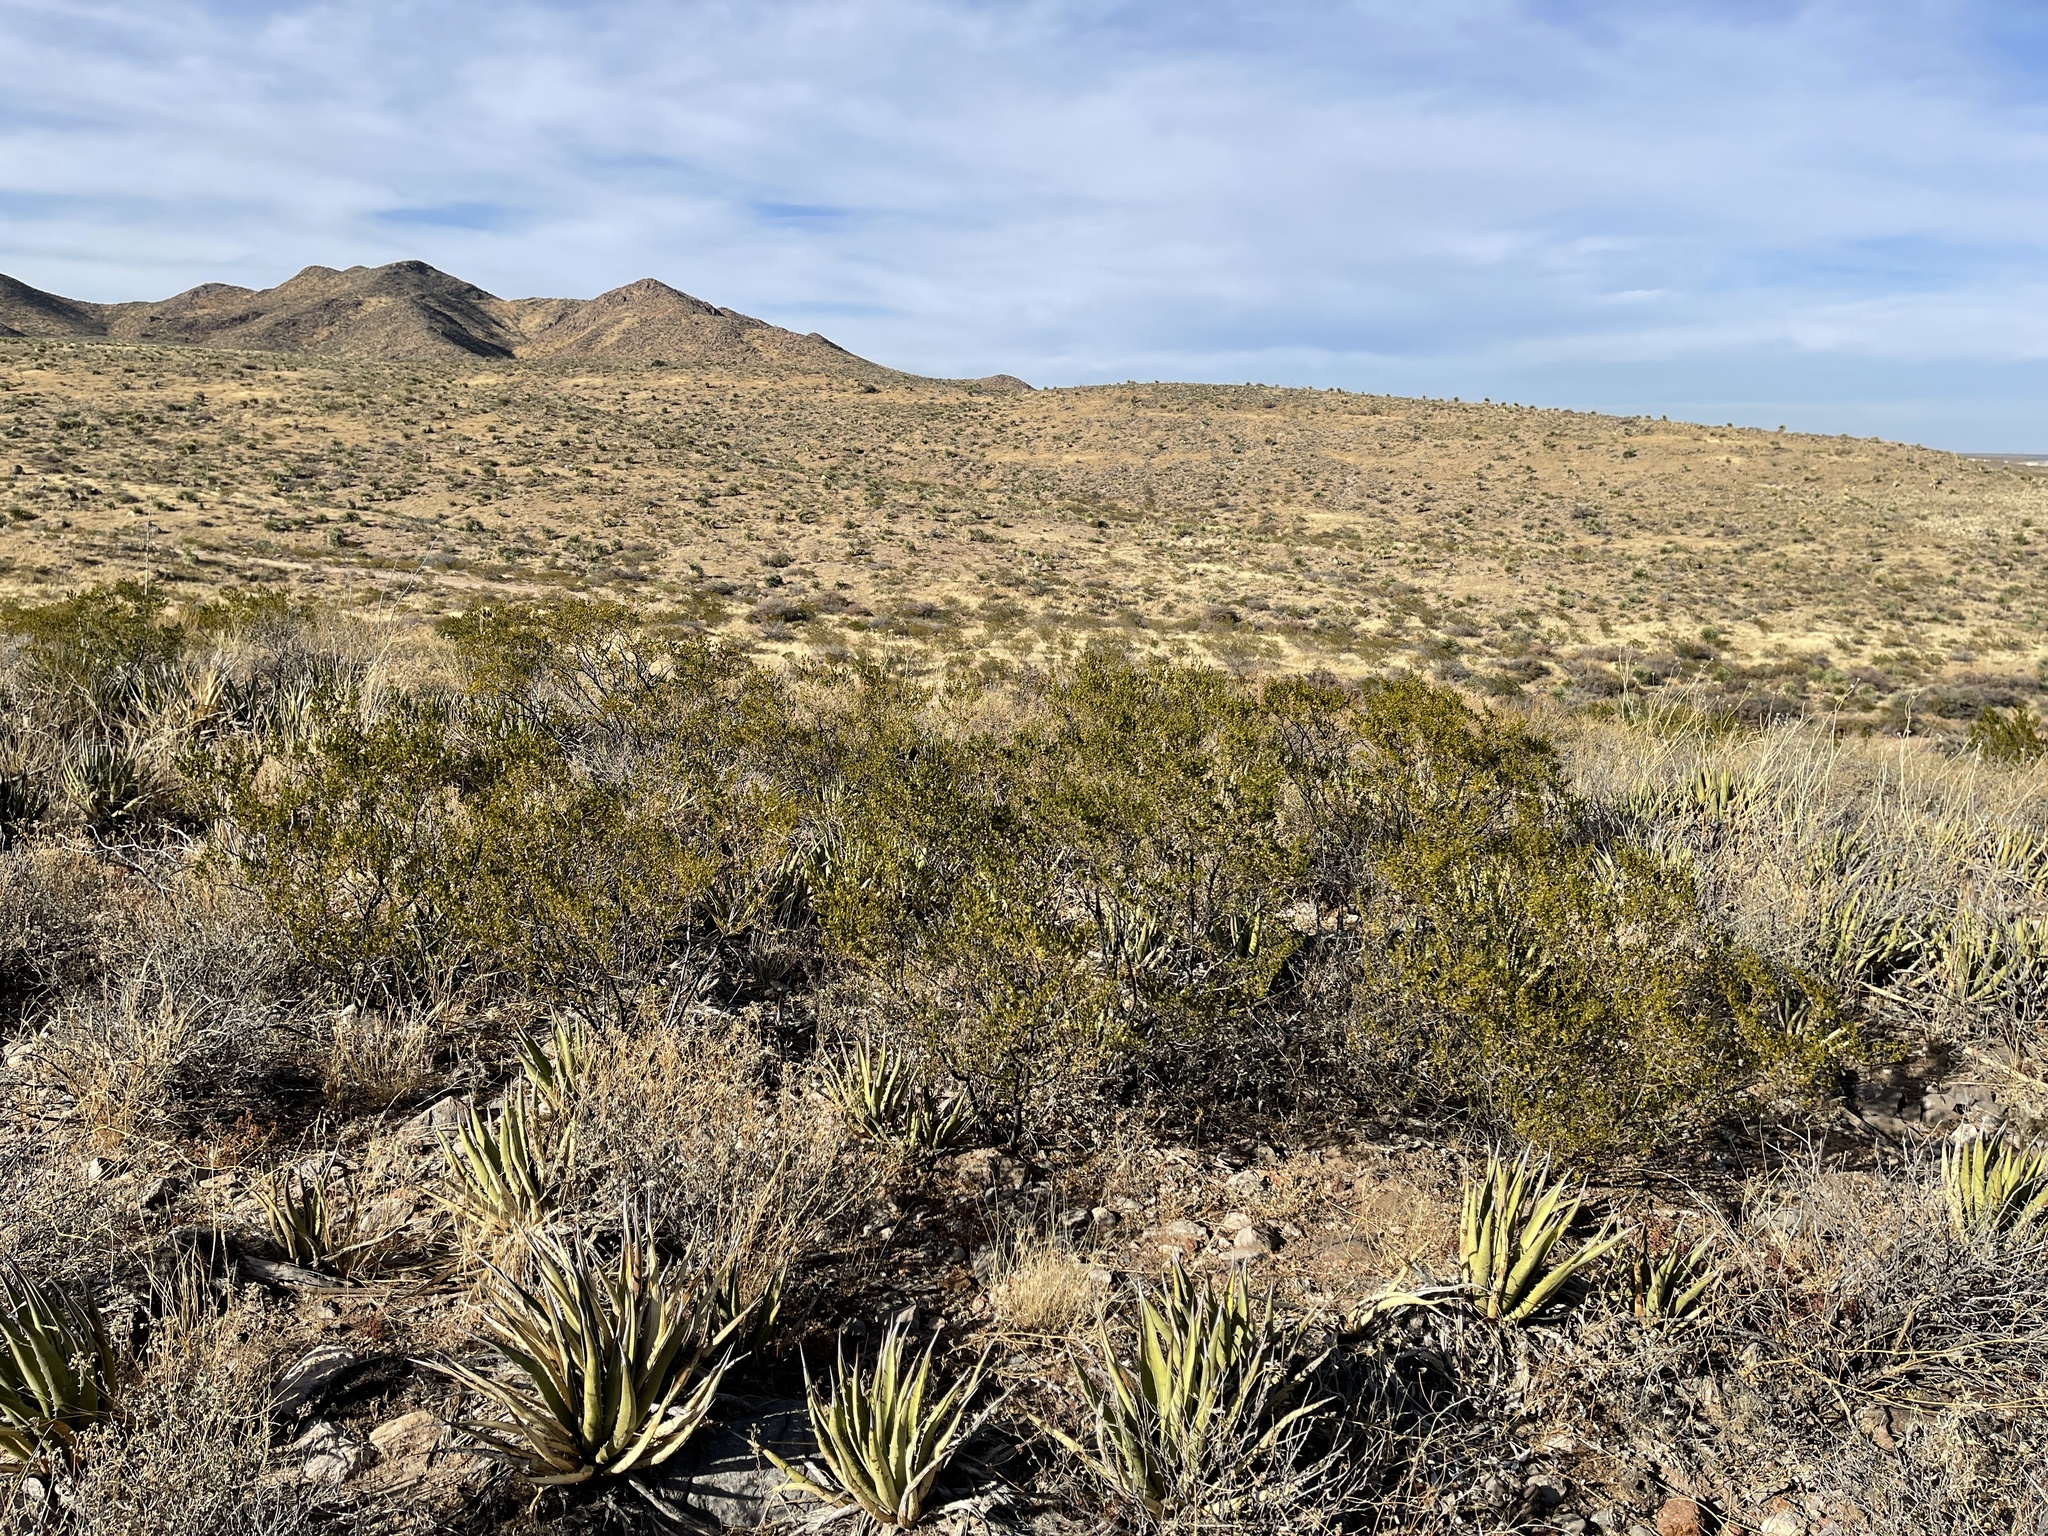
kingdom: Plantae
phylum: Tracheophyta
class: Magnoliopsida
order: Zygophyllales
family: Zygophyllaceae
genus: Larrea
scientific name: Larrea tridentata
